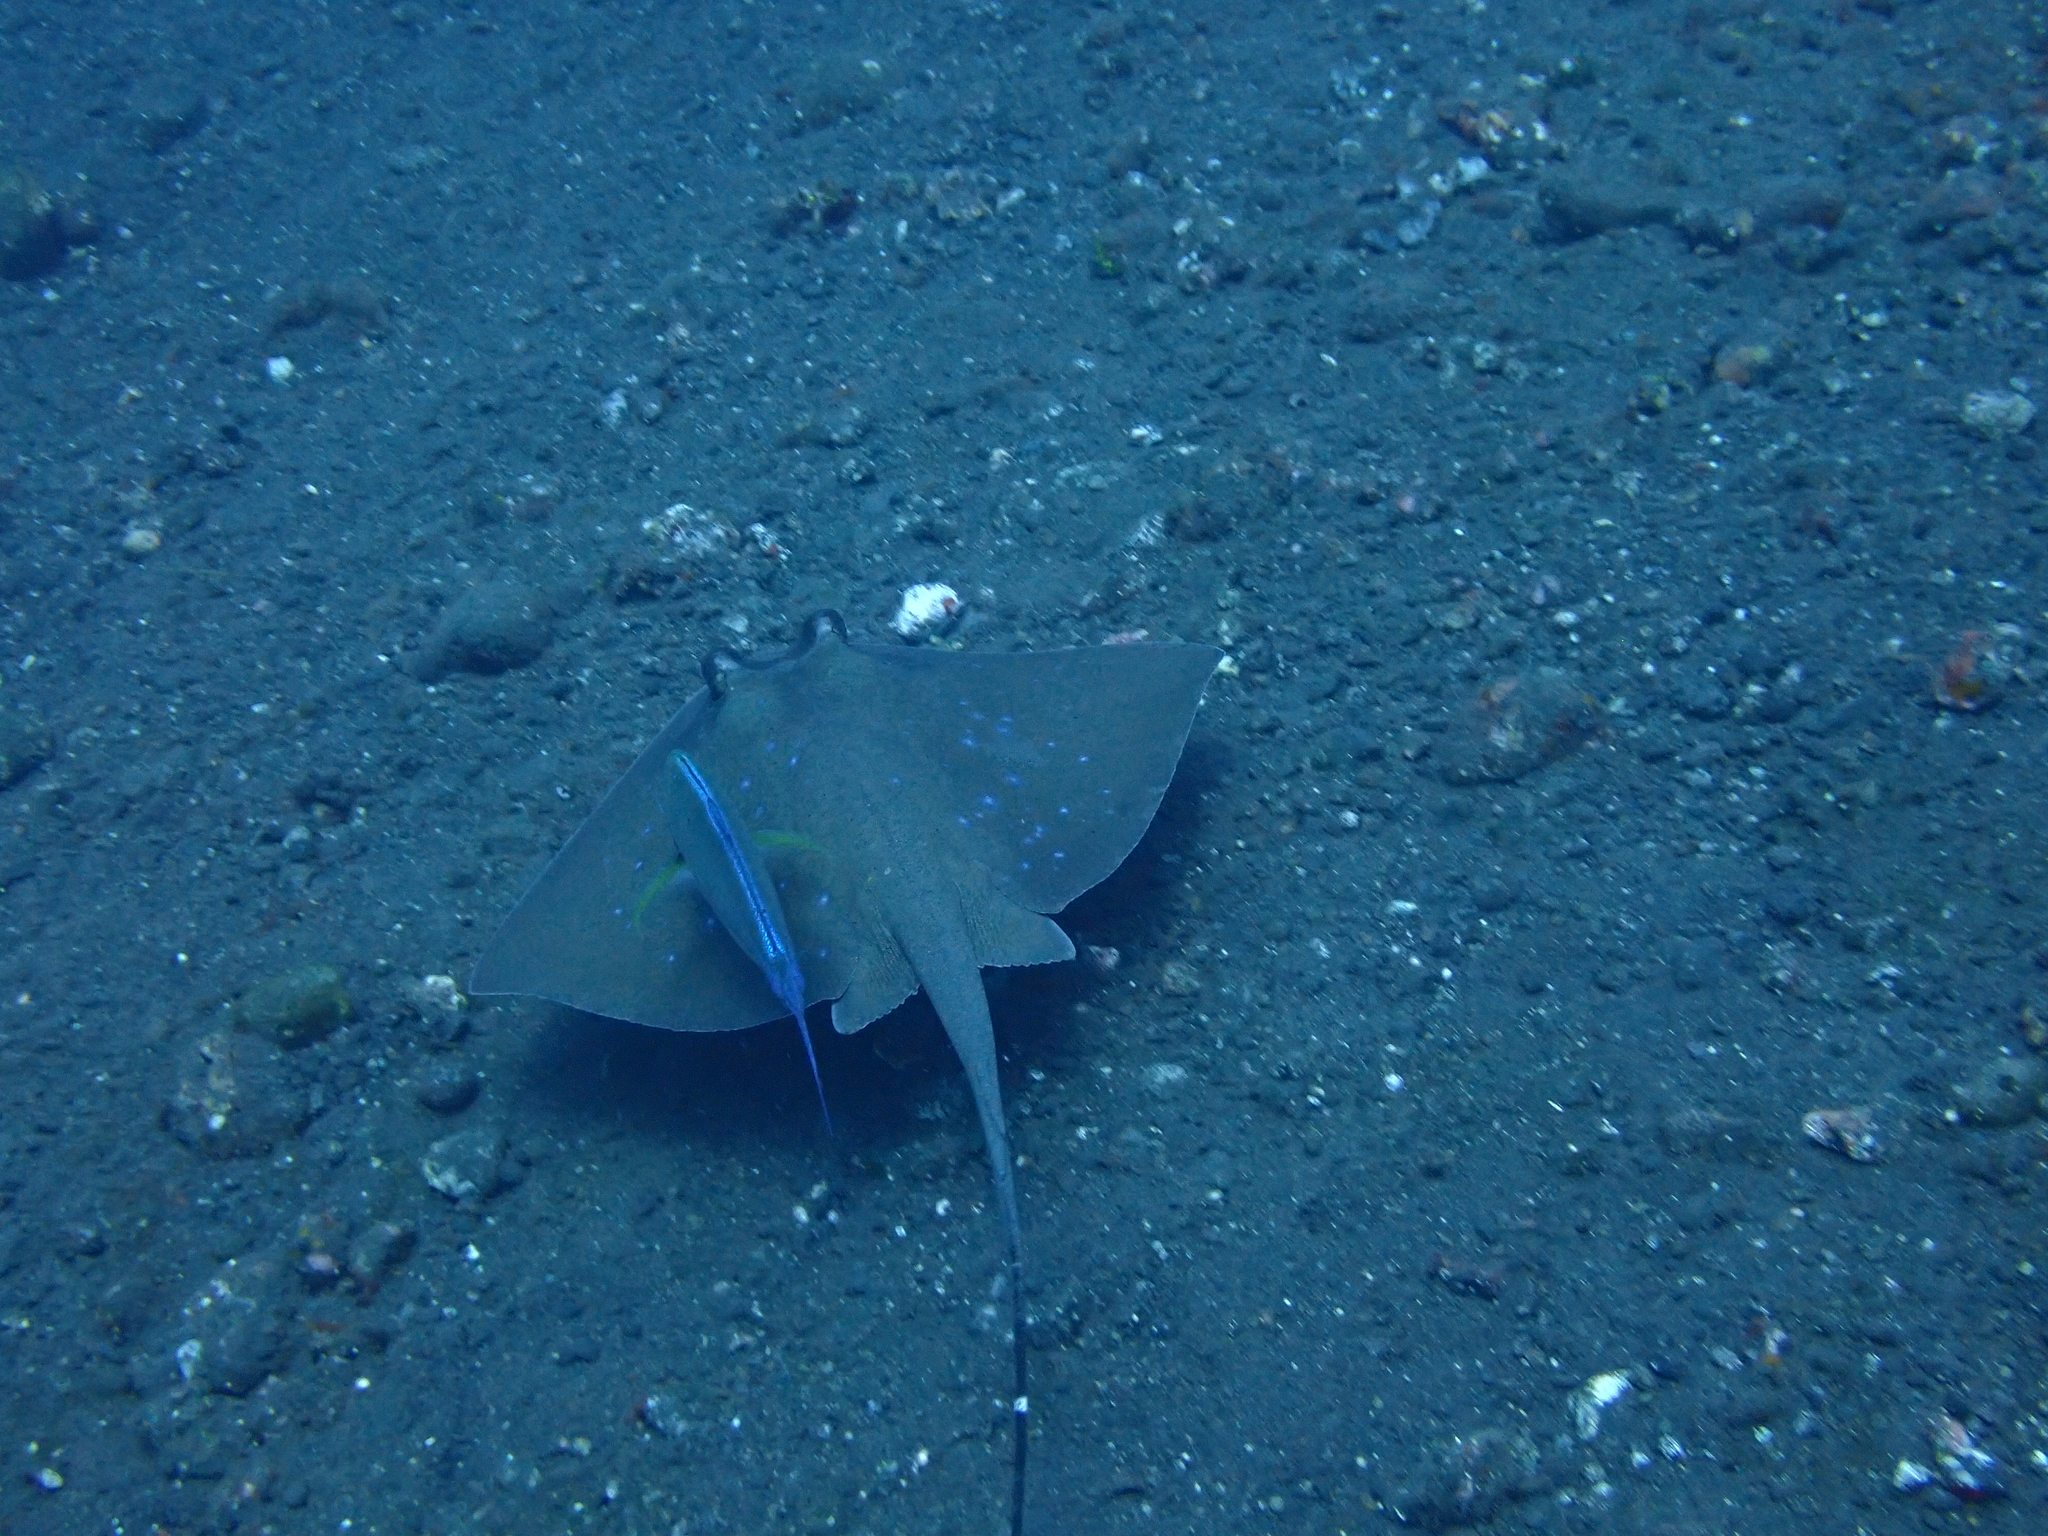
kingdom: Animalia
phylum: Chordata
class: Elasmobranchii
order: Myliobatiformes
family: Dasyatidae
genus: Neotrygon
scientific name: Neotrygon caeruleopunctata
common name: Bluespotted maskray
